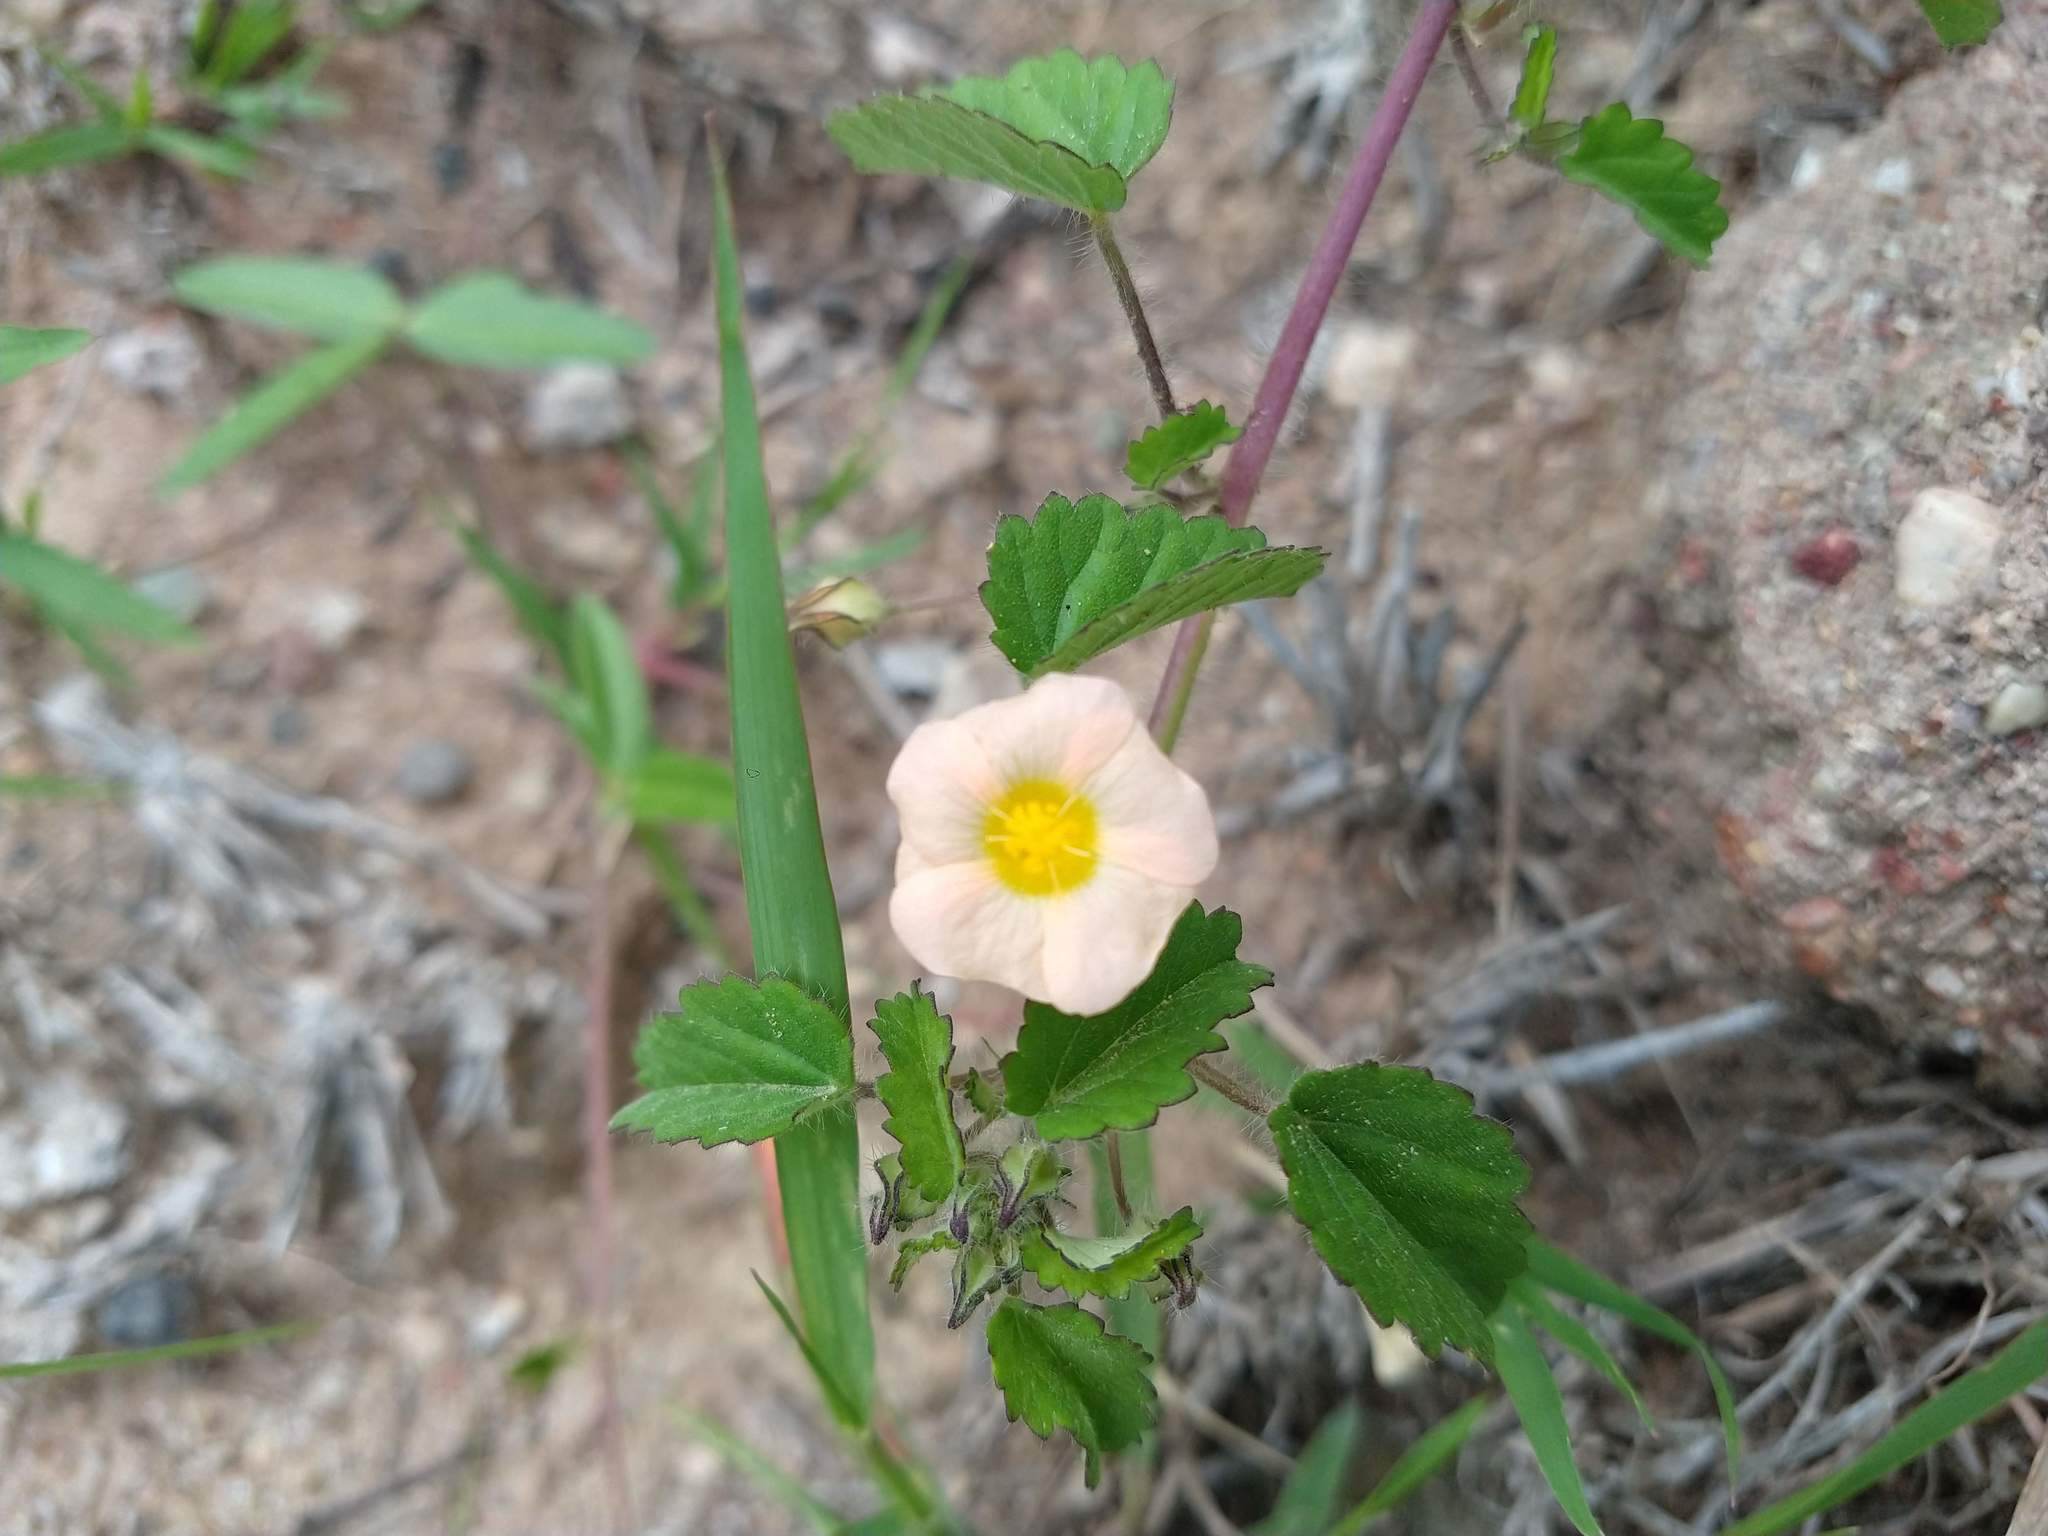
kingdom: Plantae
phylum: Tracheophyta
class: Magnoliopsida
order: Malvales
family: Malvaceae
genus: Sida
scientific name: Sida abutilifolia
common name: Spreading fanpetals
